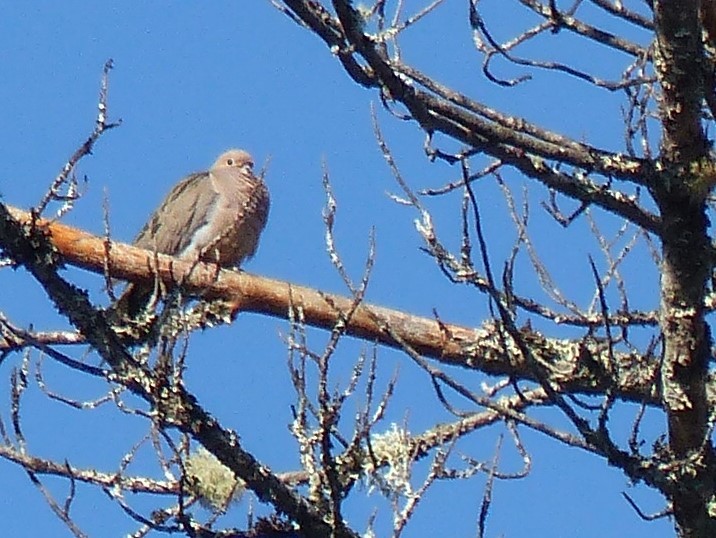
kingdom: Animalia
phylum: Chordata
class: Aves
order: Columbiformes
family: Columbidae
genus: Zenaida
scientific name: Zenaida macroura
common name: Mourning dove
